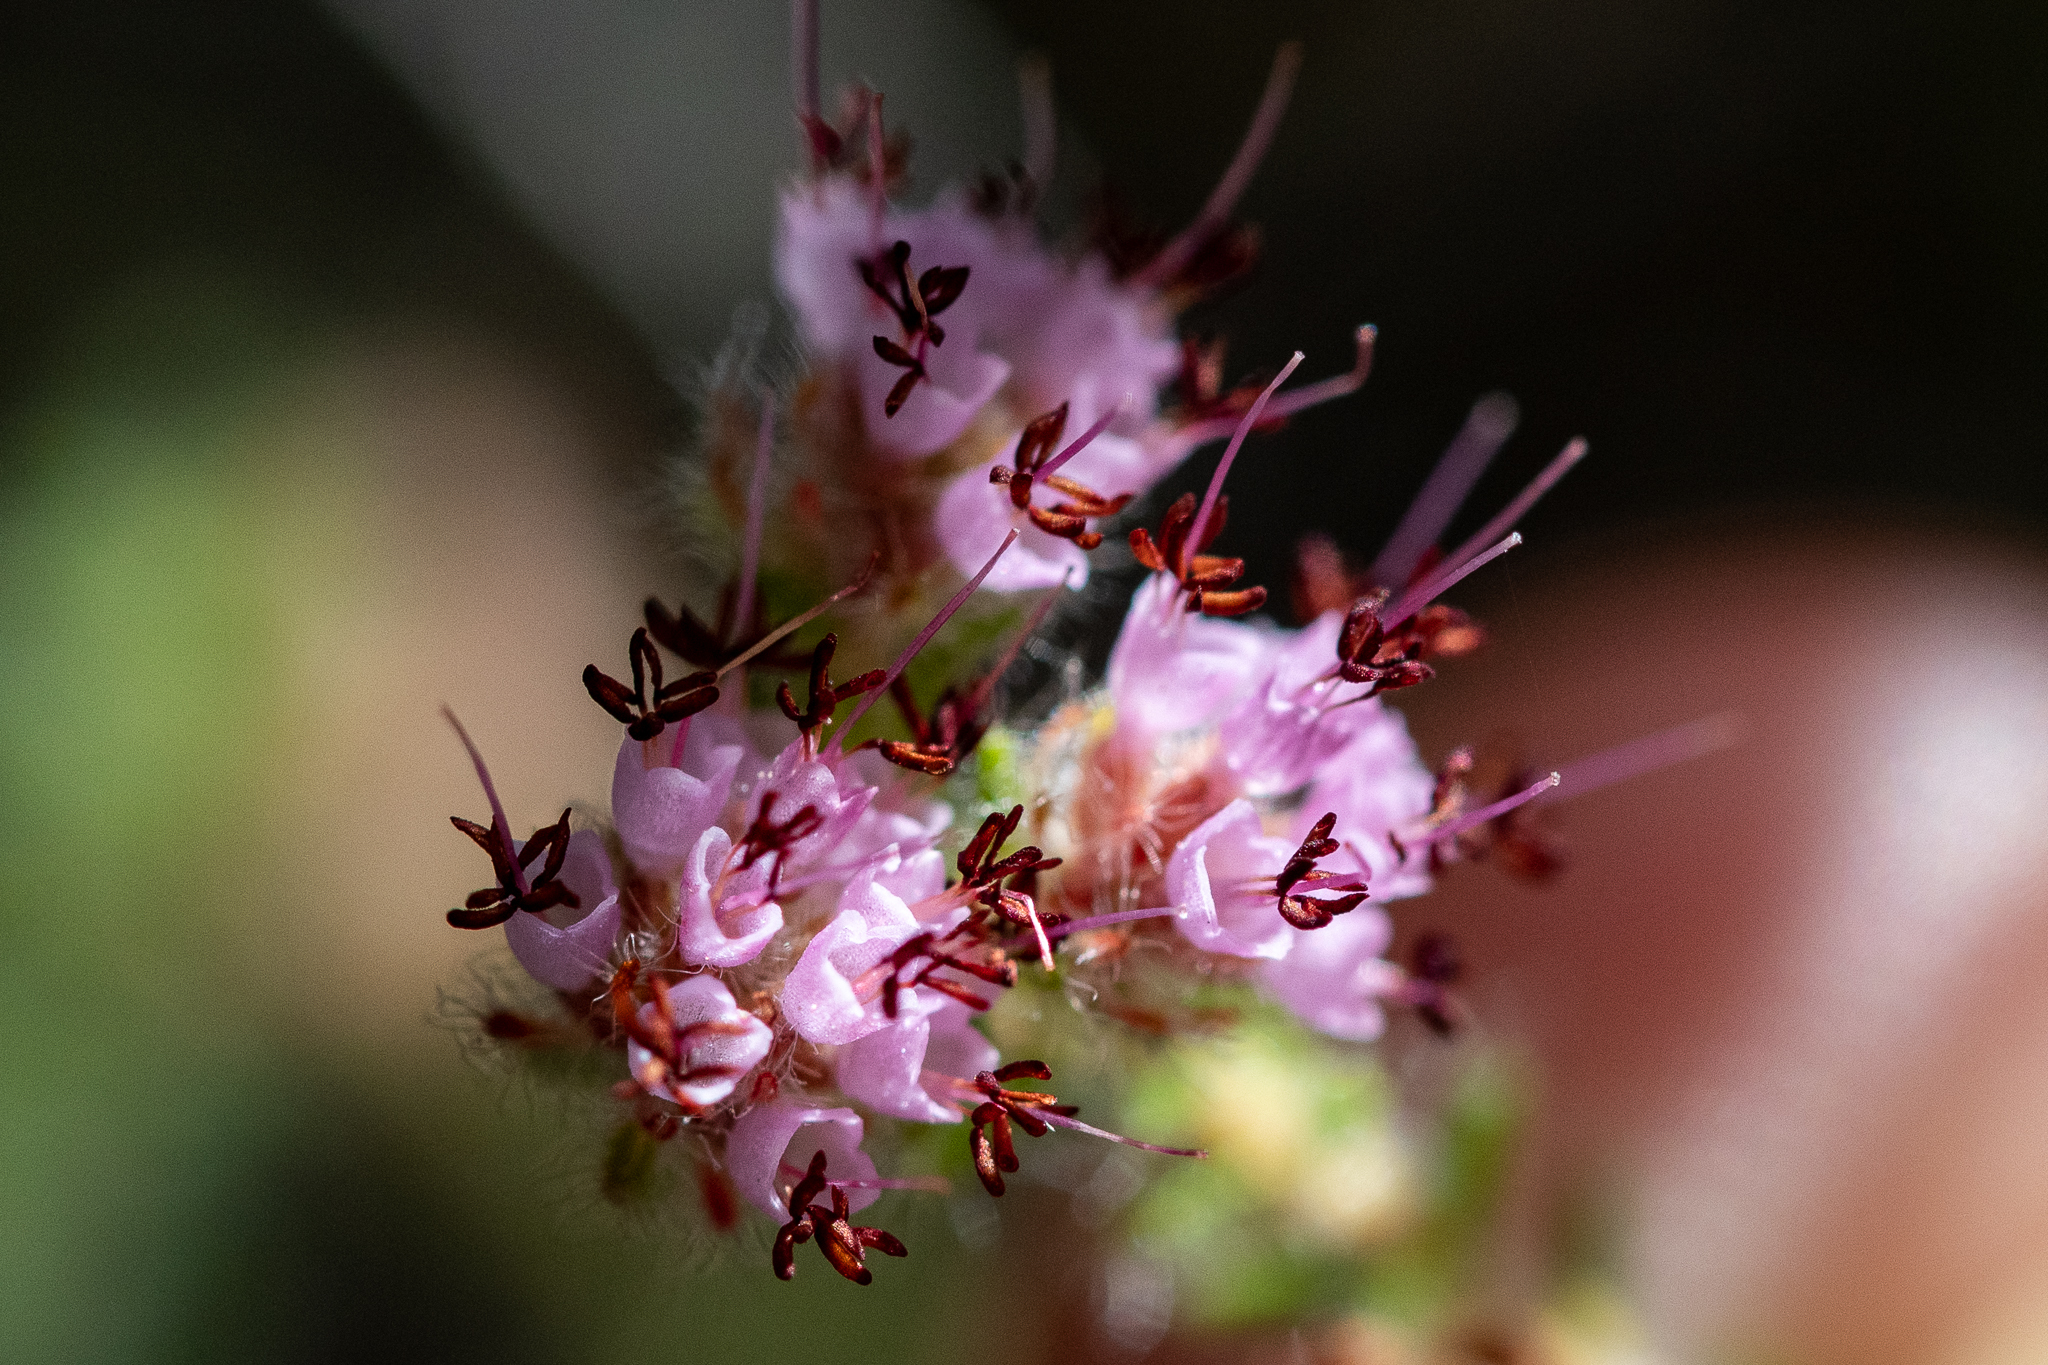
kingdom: Plantae
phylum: Tracheophyta
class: Magnoliopsida
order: Ericales
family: Ericaceae
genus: Erica
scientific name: Erica similis
